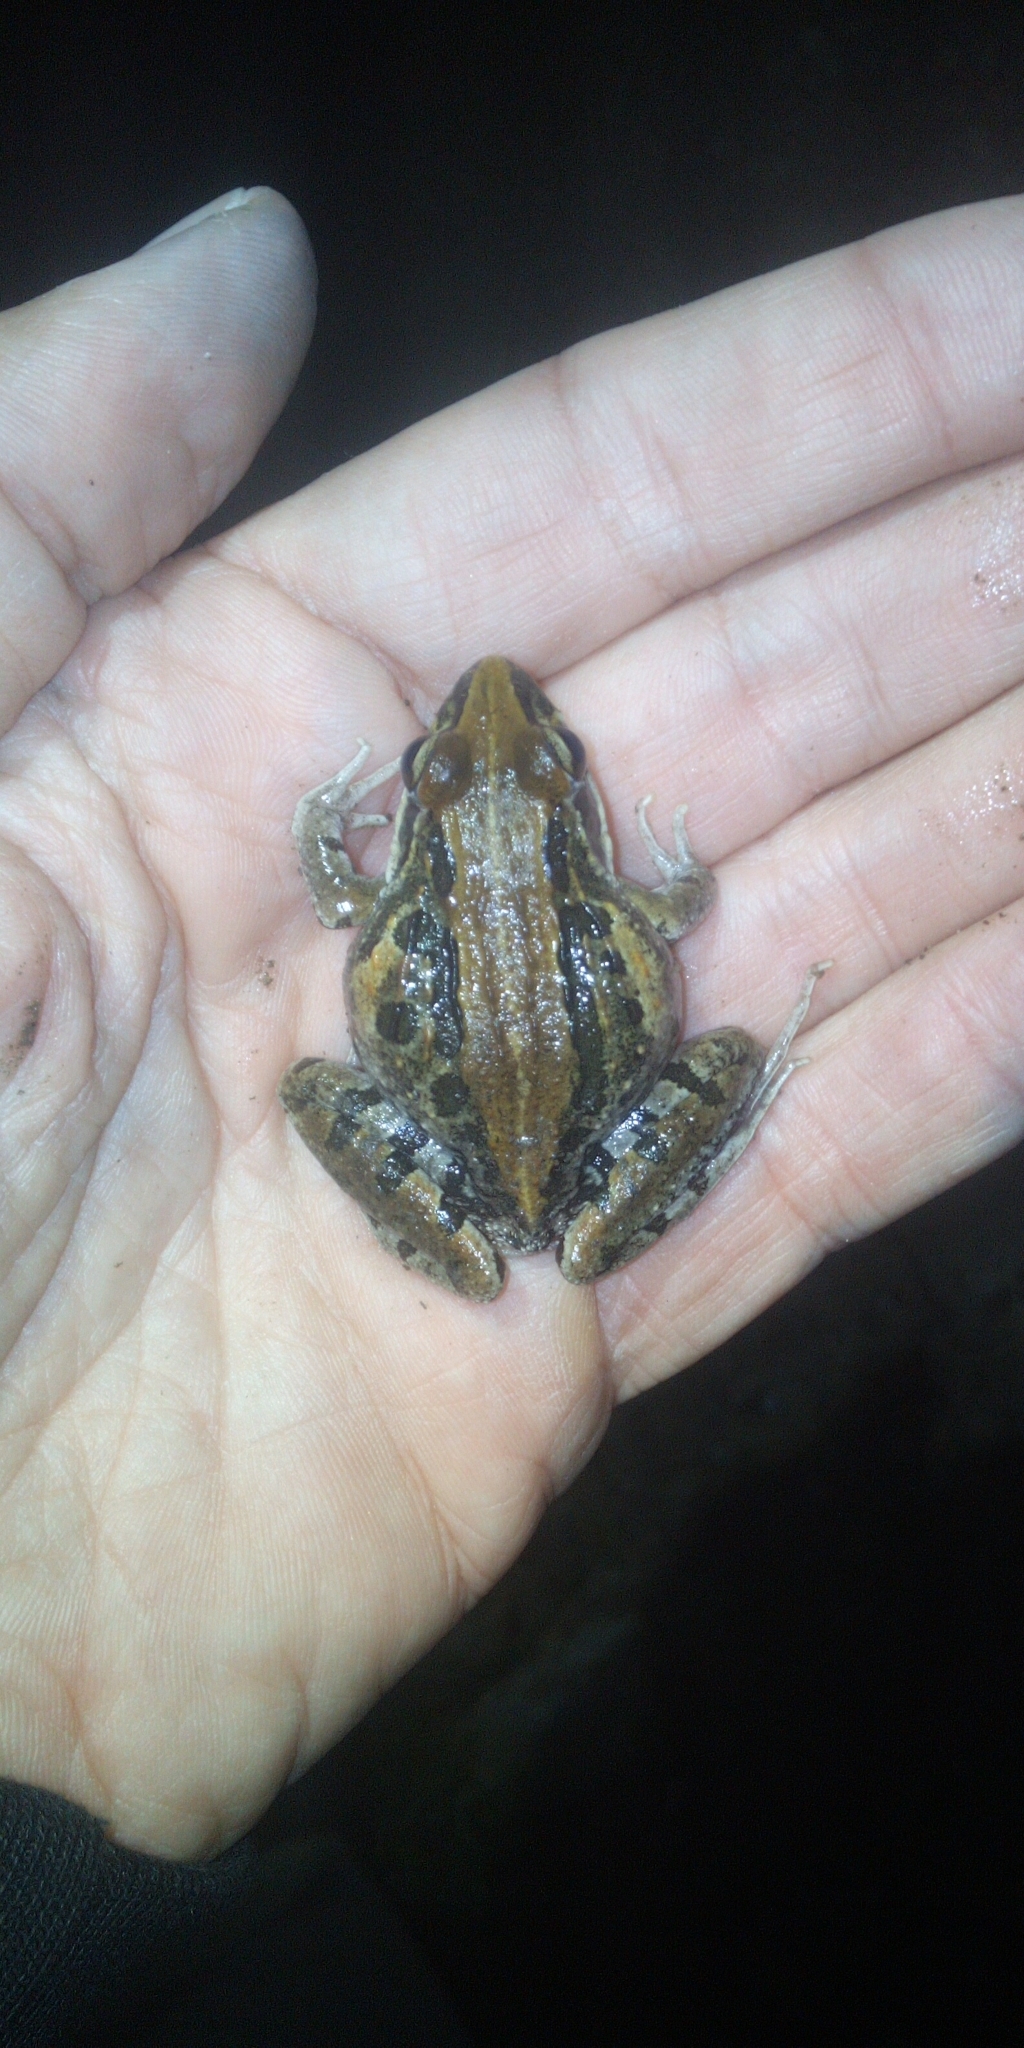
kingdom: Animalia
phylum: Chordata
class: Amphibia
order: Anura
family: Pyxicephalidae
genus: Strongylopus
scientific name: Strongylopus grayii
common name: Gray's stream frog
